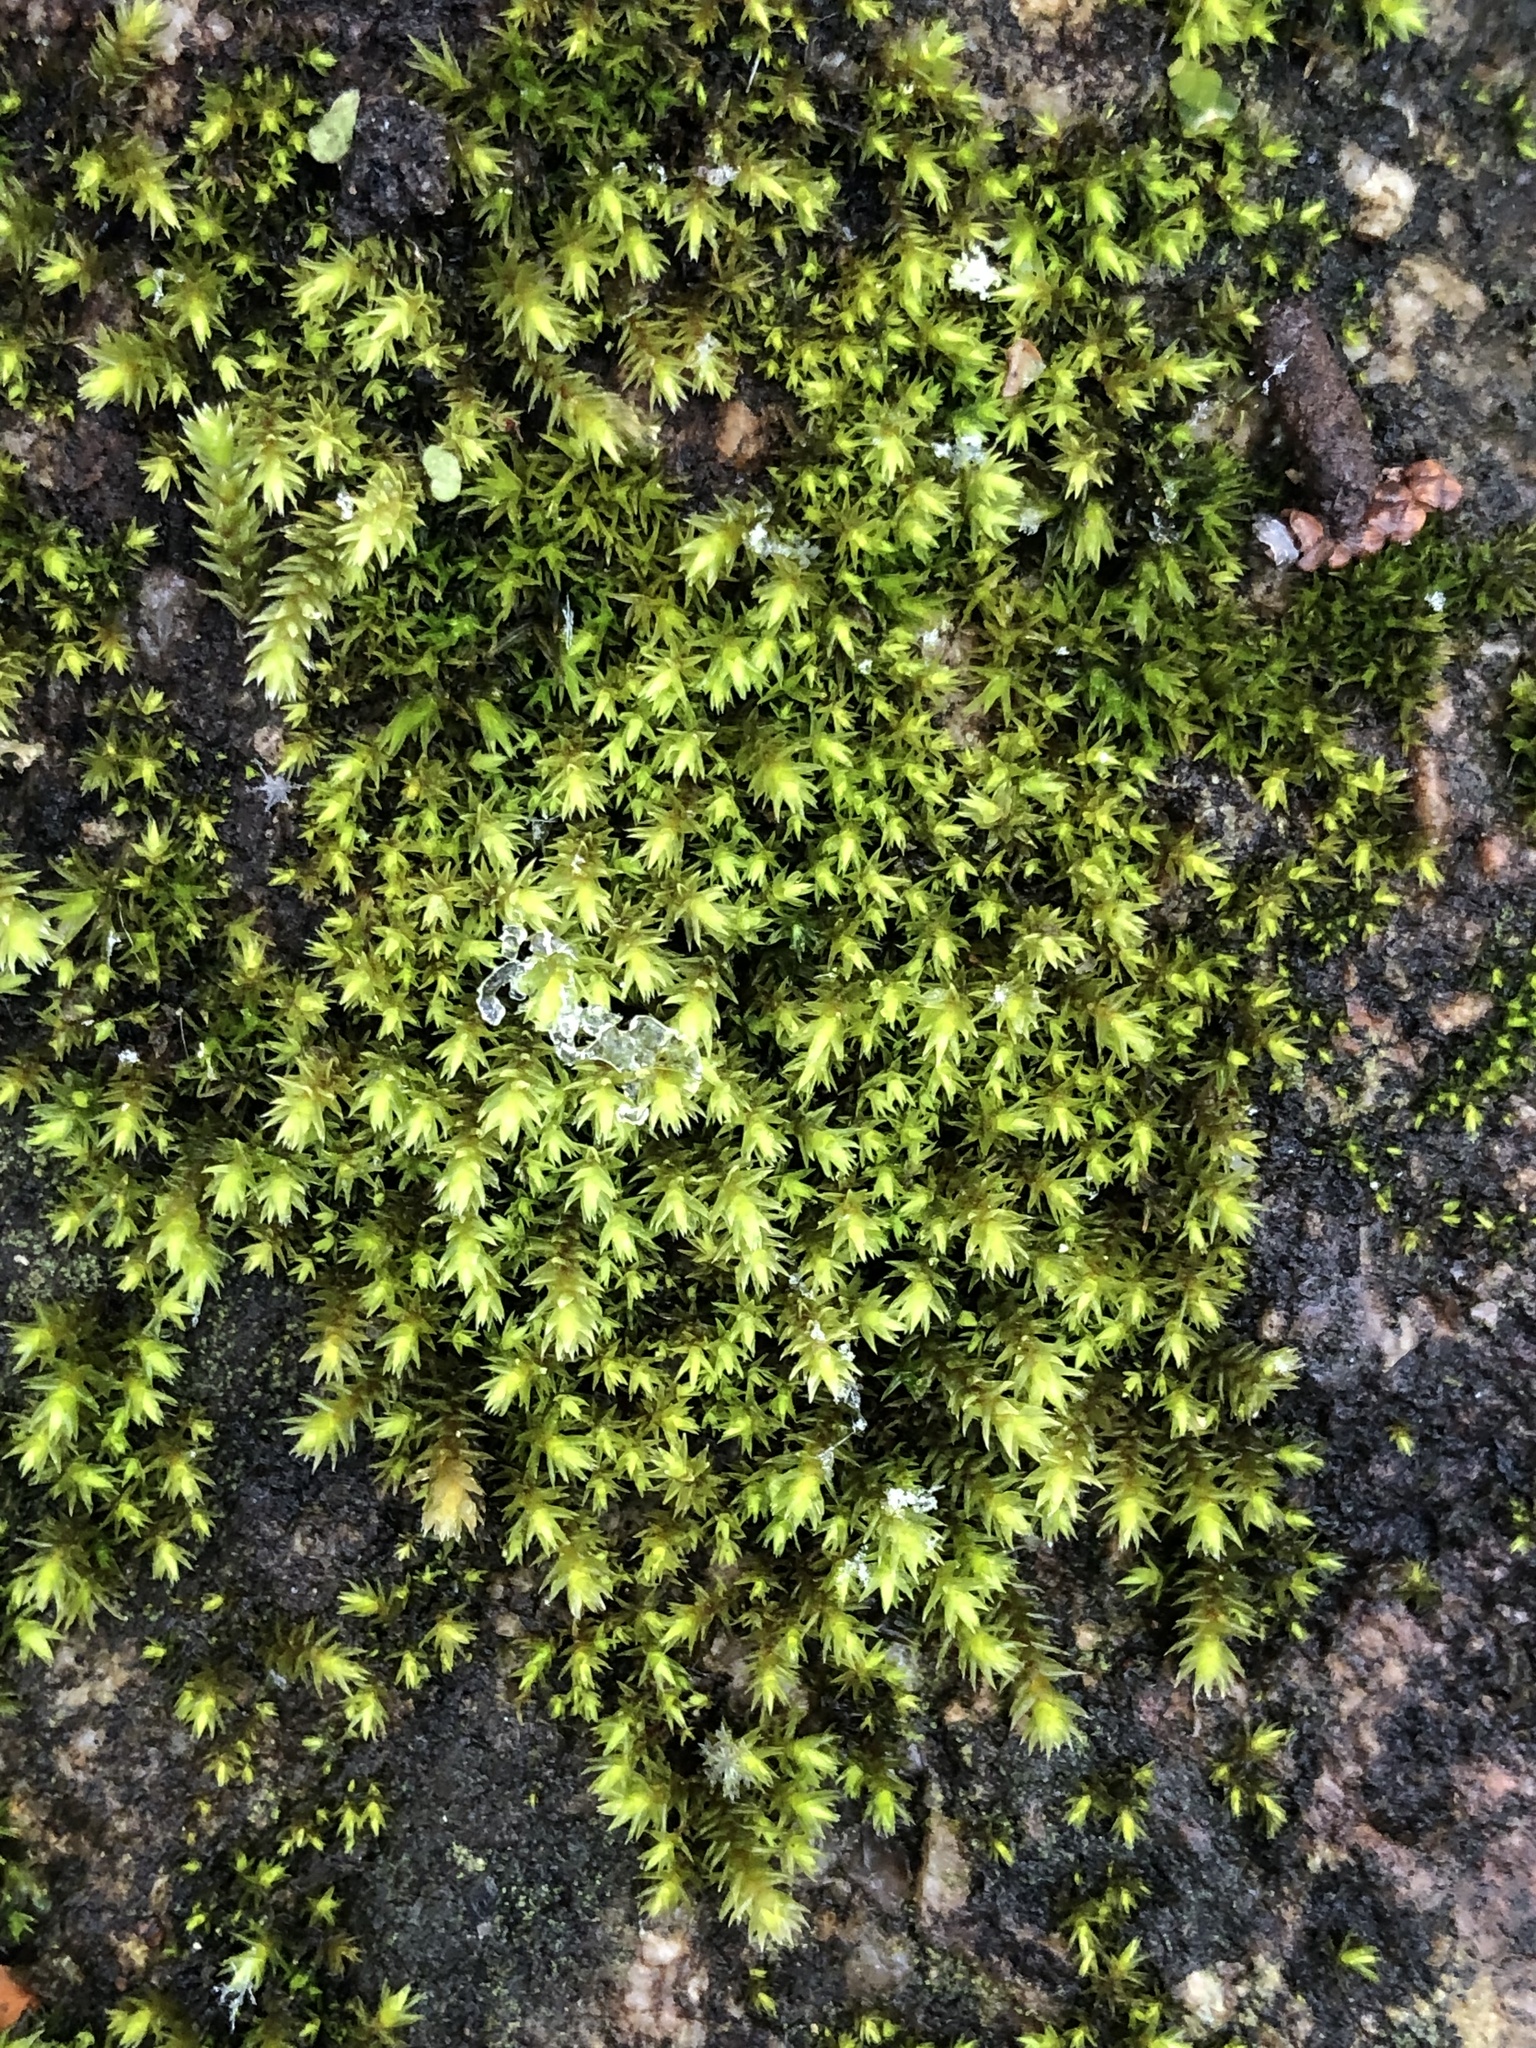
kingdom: Plantae
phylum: Bryophyta
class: Bryopsida
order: Hedwigiales
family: Hedwigiaceae
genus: Hedwigia
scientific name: Hedwigia ciliata
